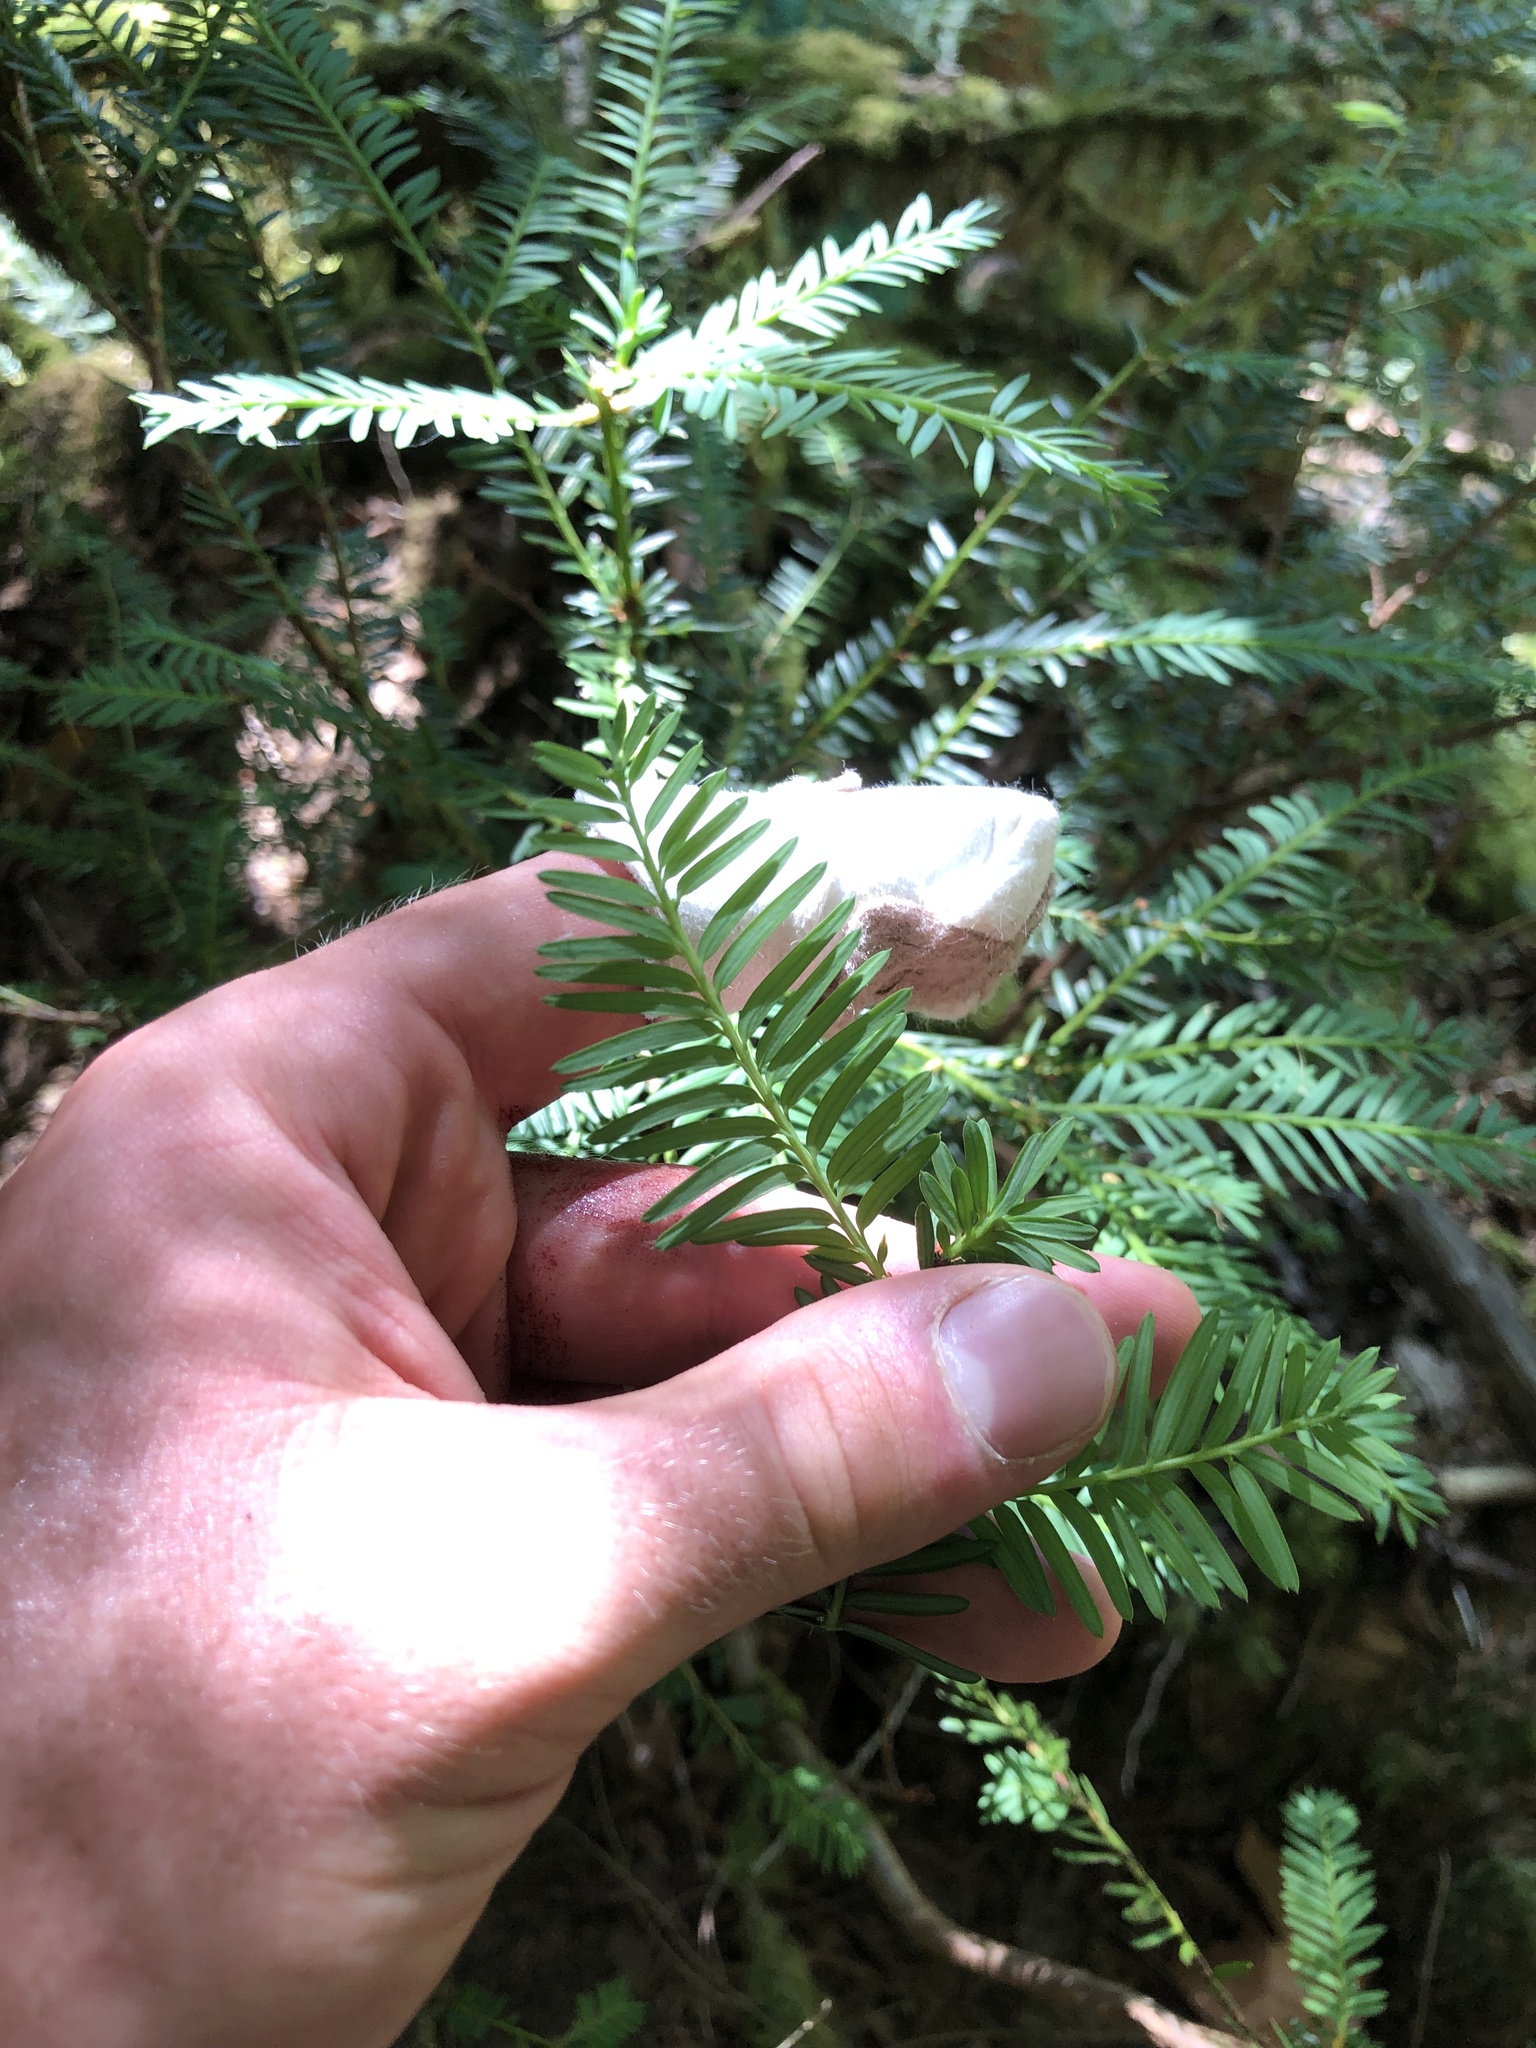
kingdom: Plantae
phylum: Tracheophyta
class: Pinopsida
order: Pinales
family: Taxaceae
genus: Taxus
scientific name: Taxus brevifolia
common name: Pacific yew
